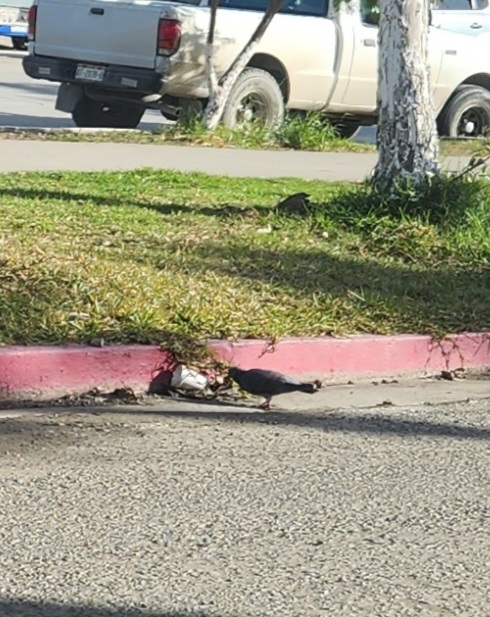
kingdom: Animalia
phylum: Chordata
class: Aves
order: Columbiformes
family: Columbidae
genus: Columba
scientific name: Columba livia
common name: Rock pigeon
